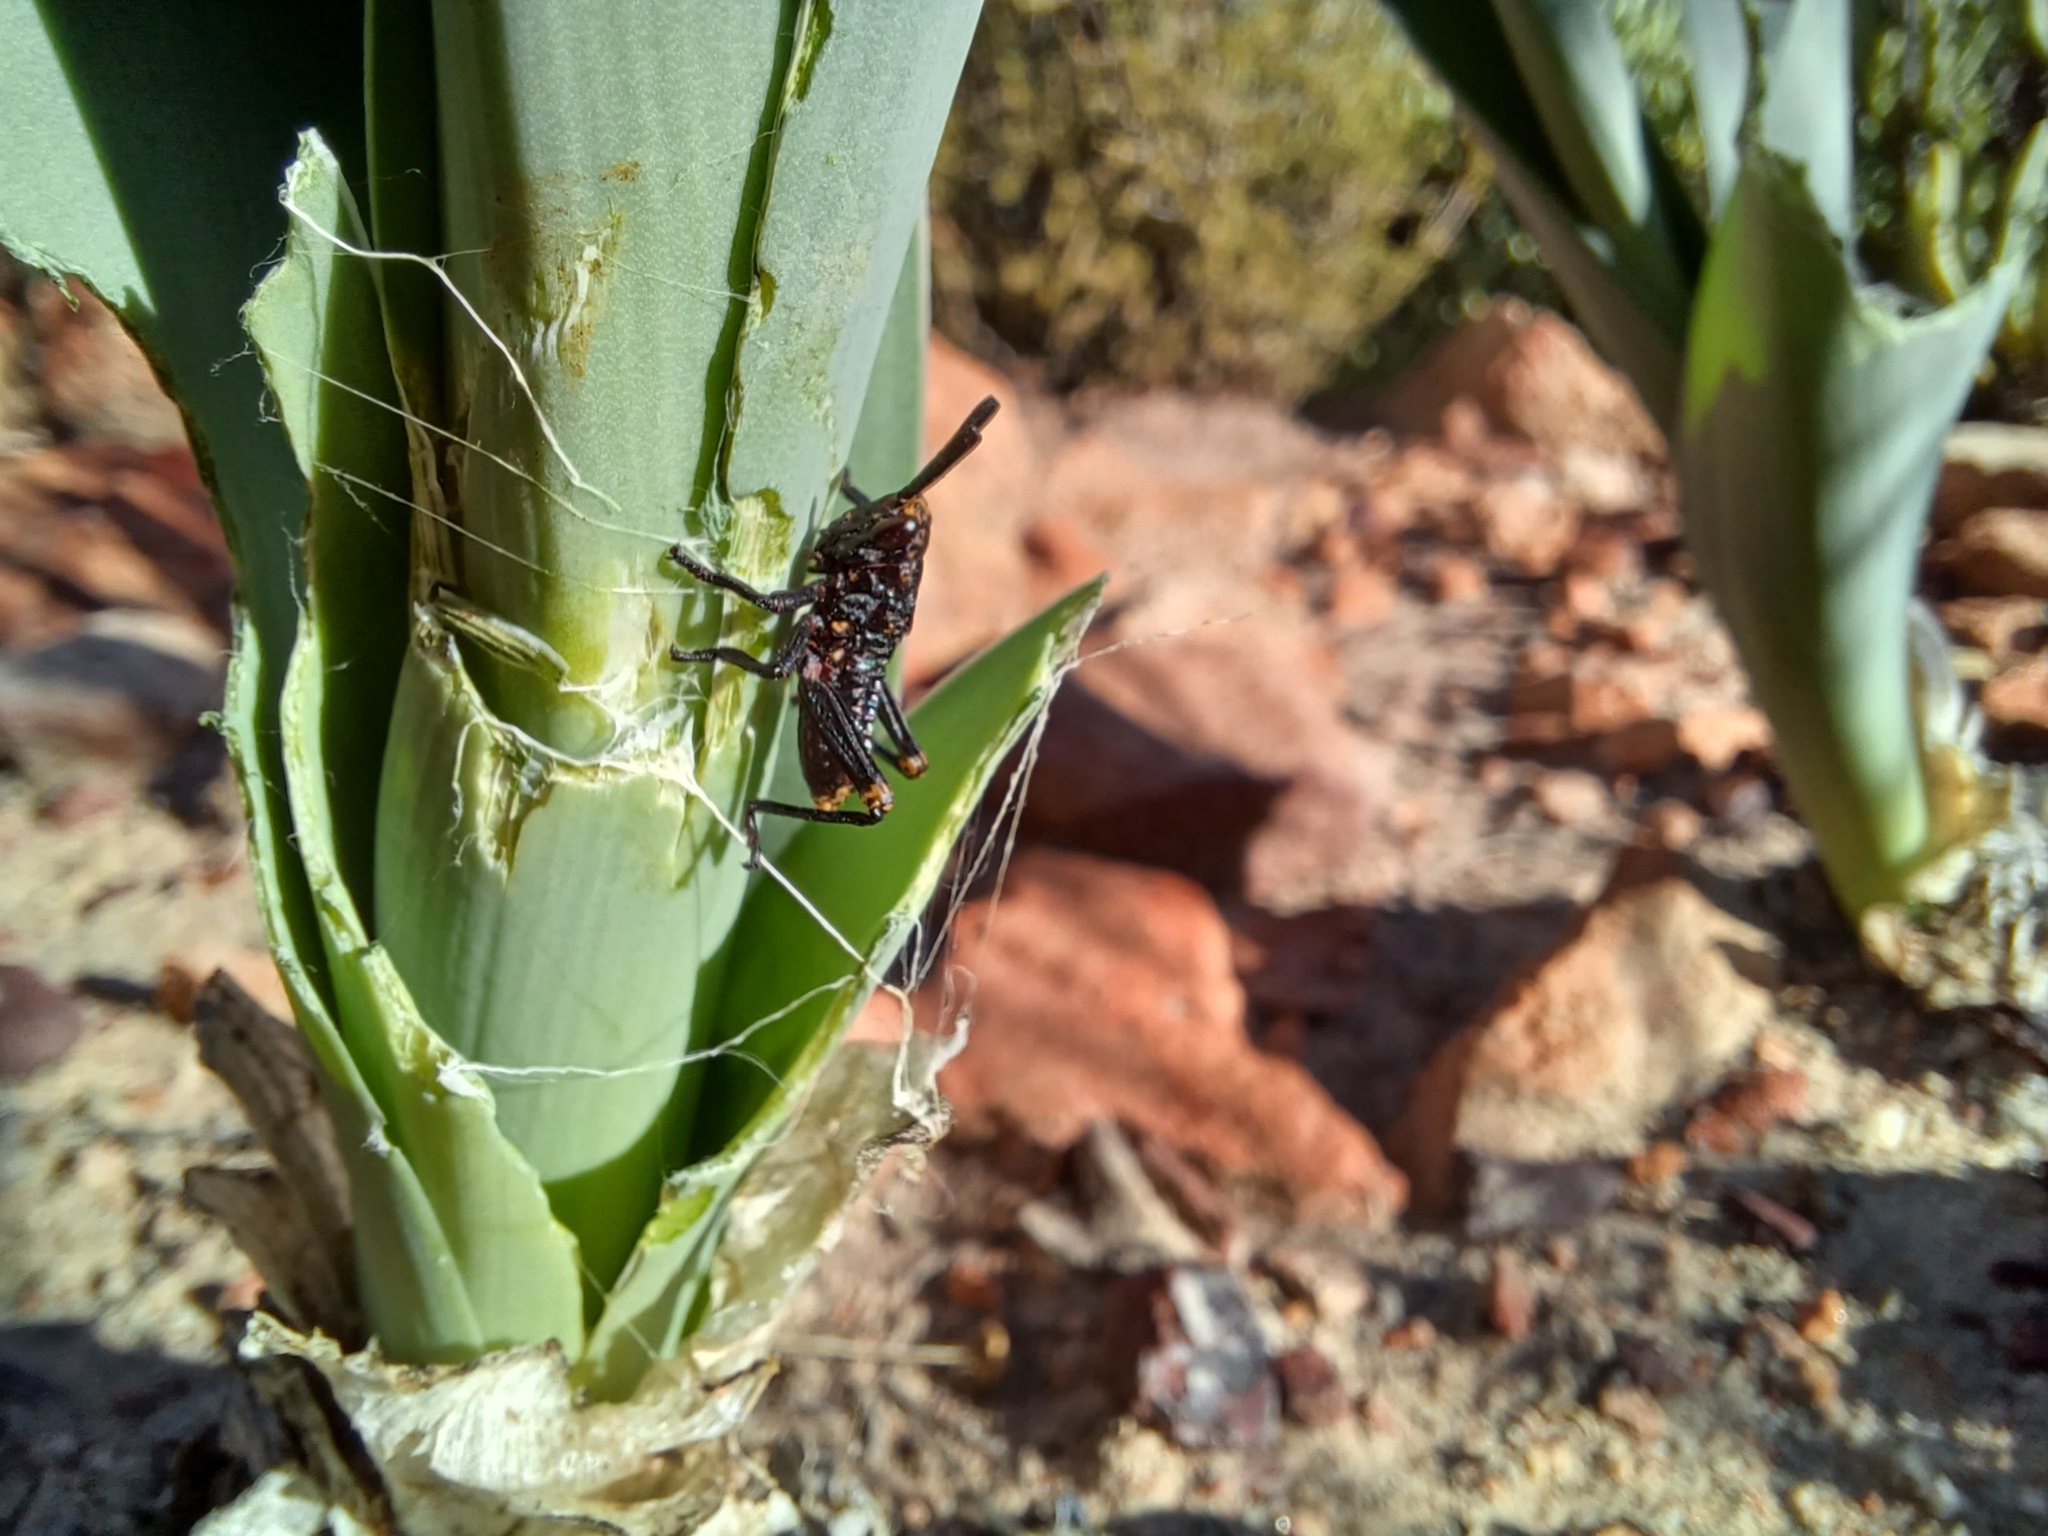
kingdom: Animalia
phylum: Arthropoda
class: Insecta
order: Orthoptera
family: Pyrgomorphidae
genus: Dictyophorus
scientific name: Dictyophorus spumans
